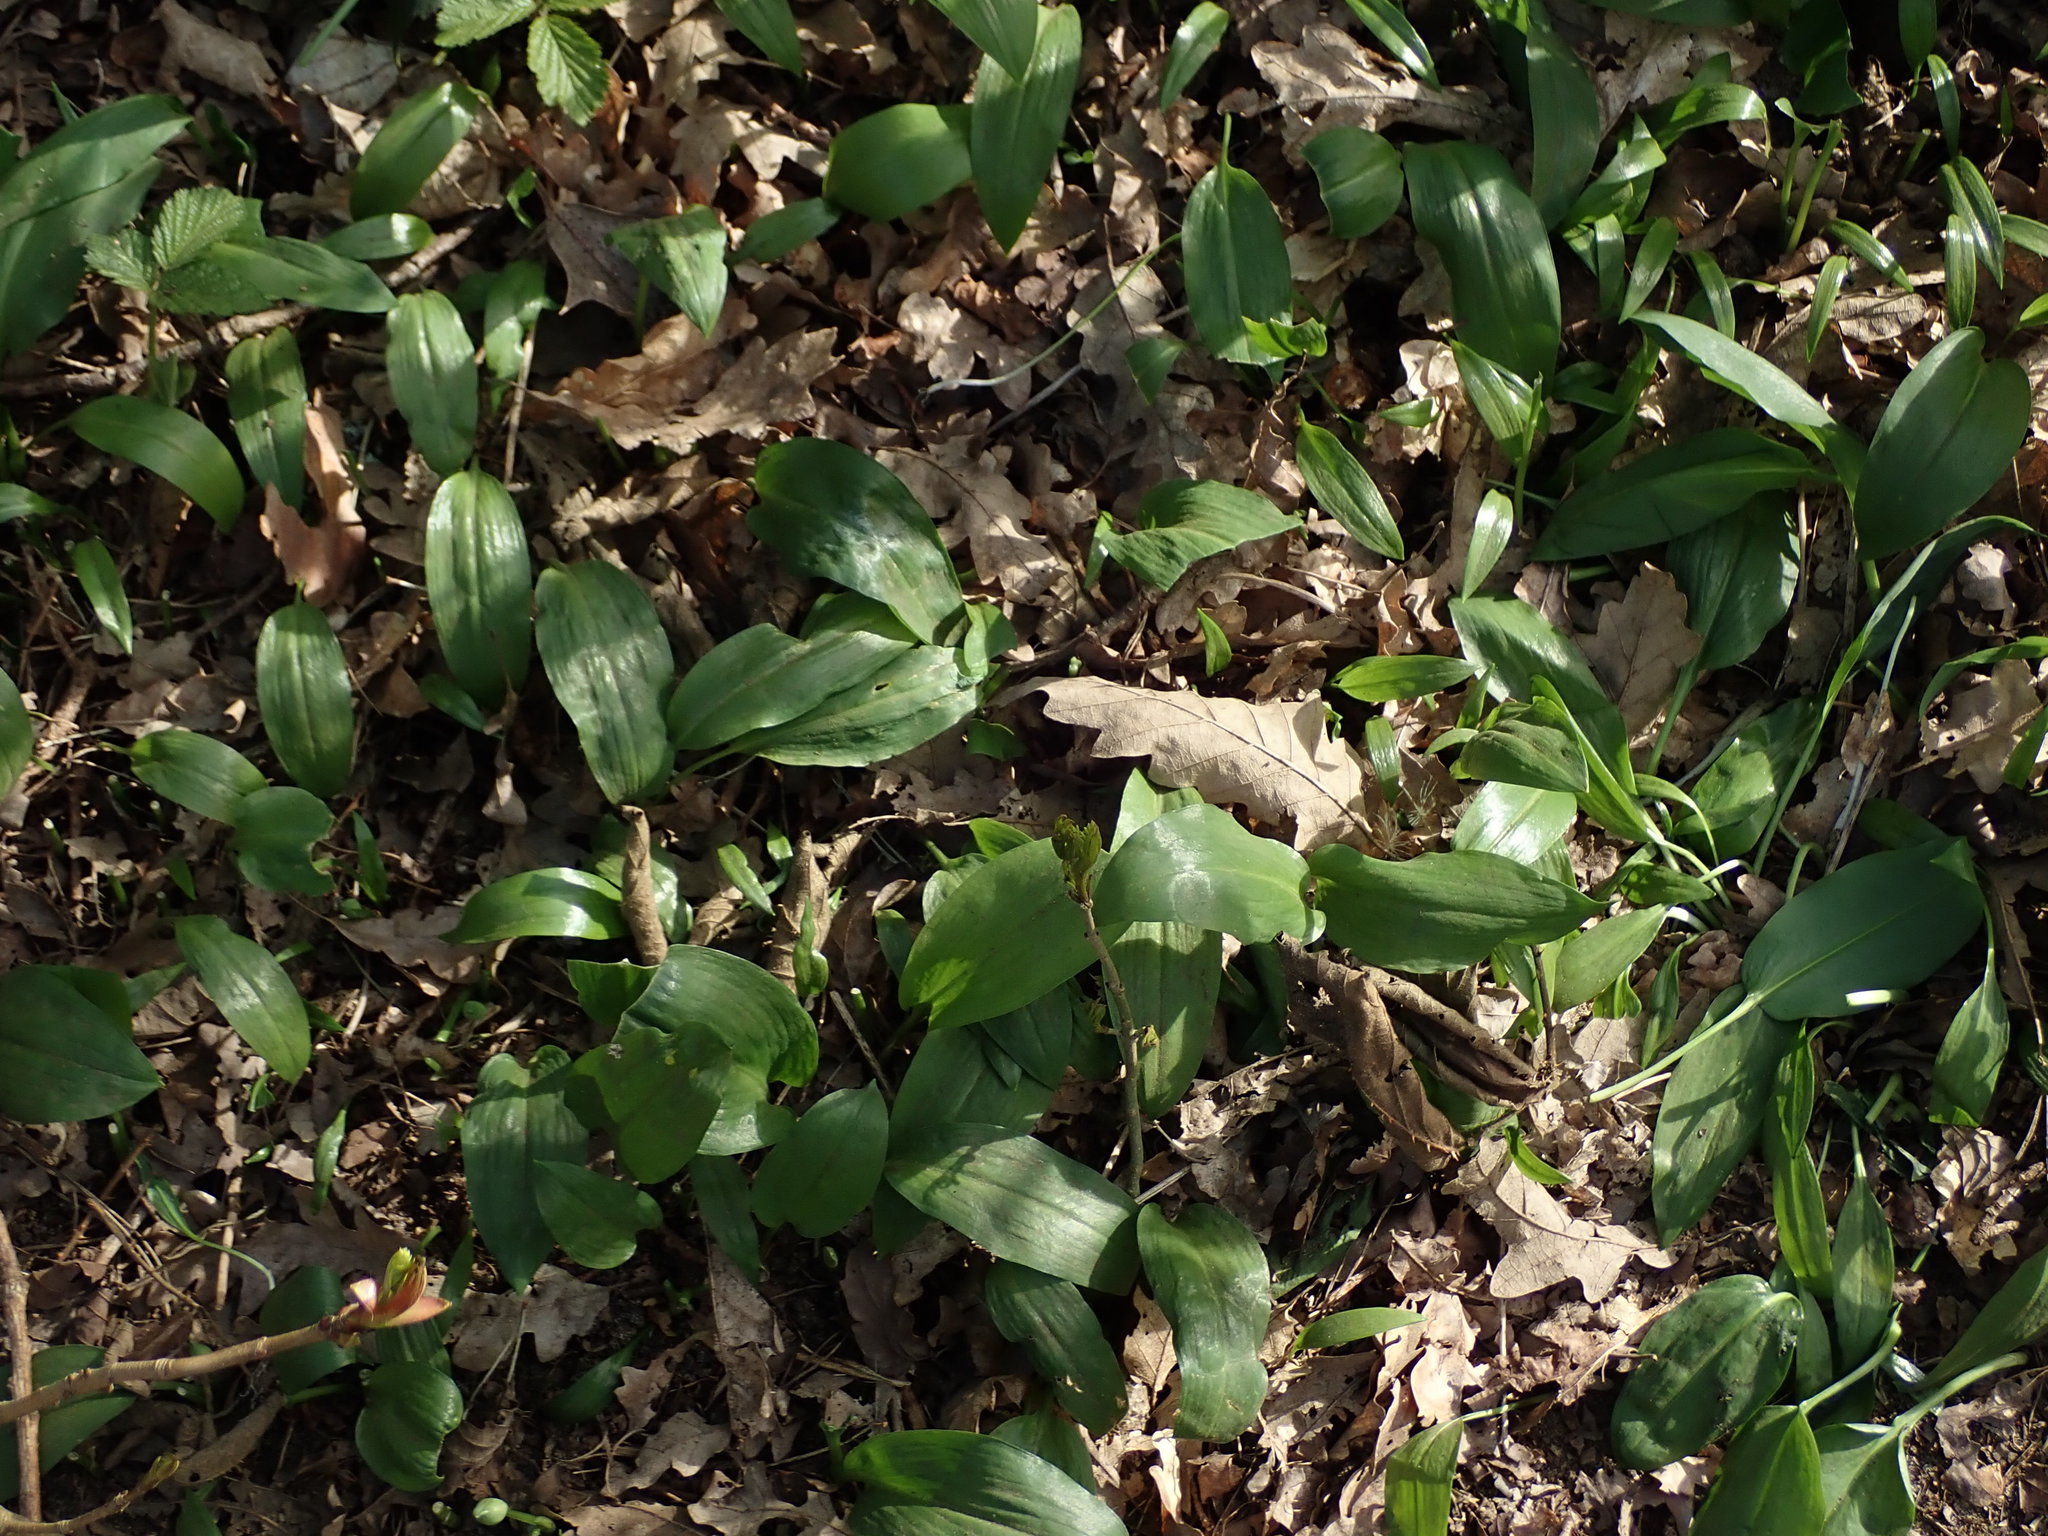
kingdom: Plantae
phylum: Tracheophyta
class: Liliopsida
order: Asparagales
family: Amaryllidaceae
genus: Allium
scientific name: Allium ursinum
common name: Ramsons
